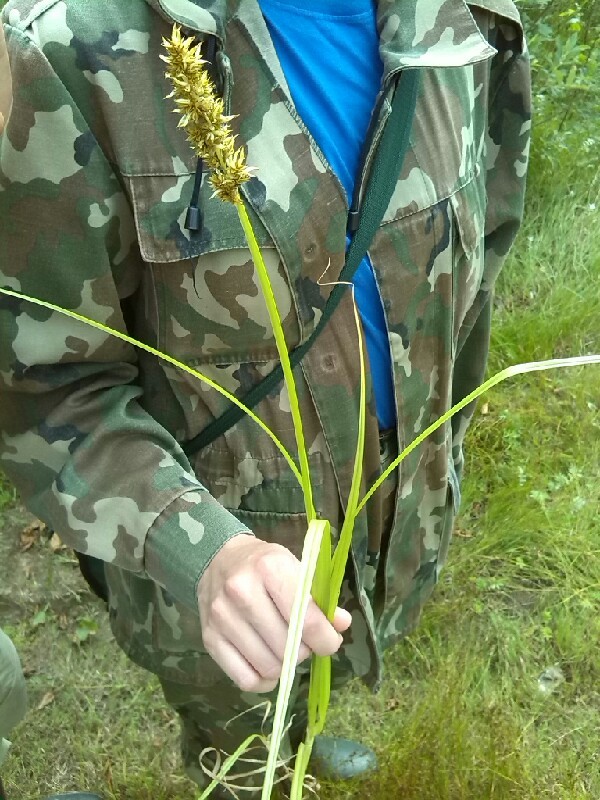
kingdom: Plantae
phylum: Tracheophyta
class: Liliopsida
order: Poales
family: Cyperaceae
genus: Carex
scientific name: Carex vulpina
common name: True fox-sedge
